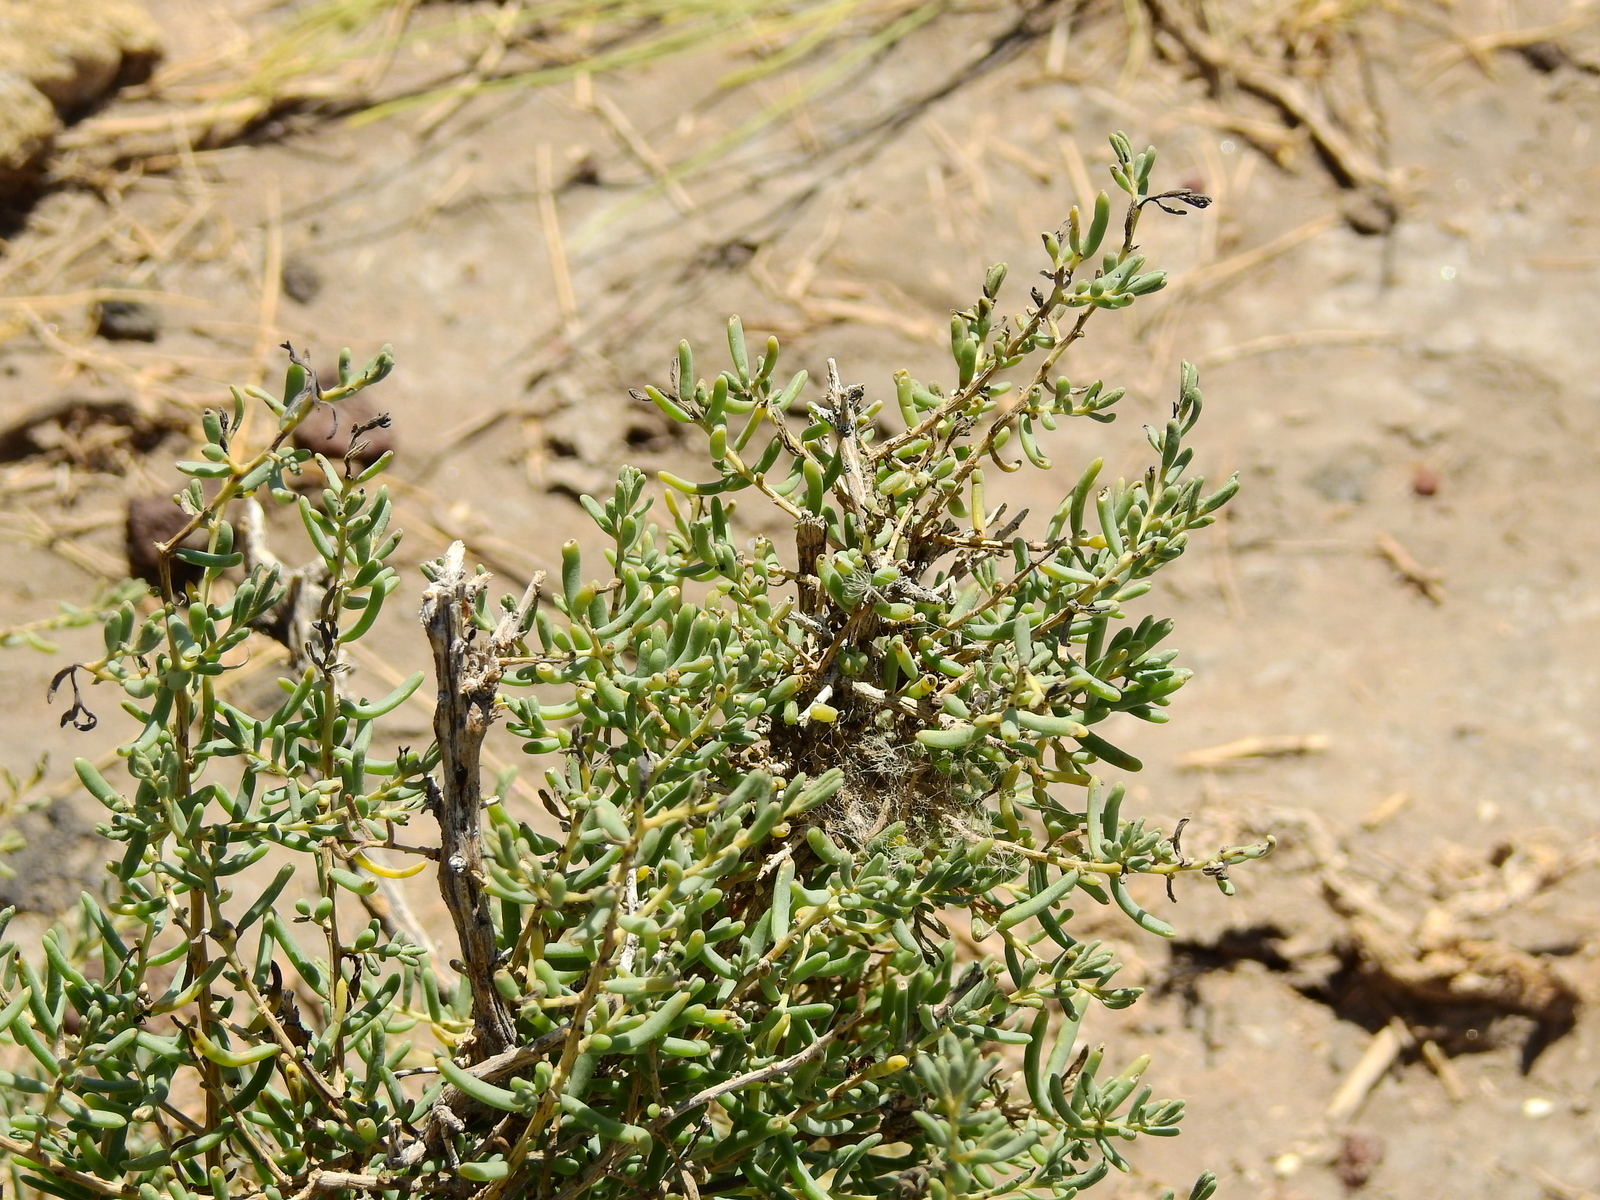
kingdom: Plantae
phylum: Tracheophyta
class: Magnoliopsida
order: Caryophyllales
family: Amaranthaceae
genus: Suaeda
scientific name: Suaeda divaricata
